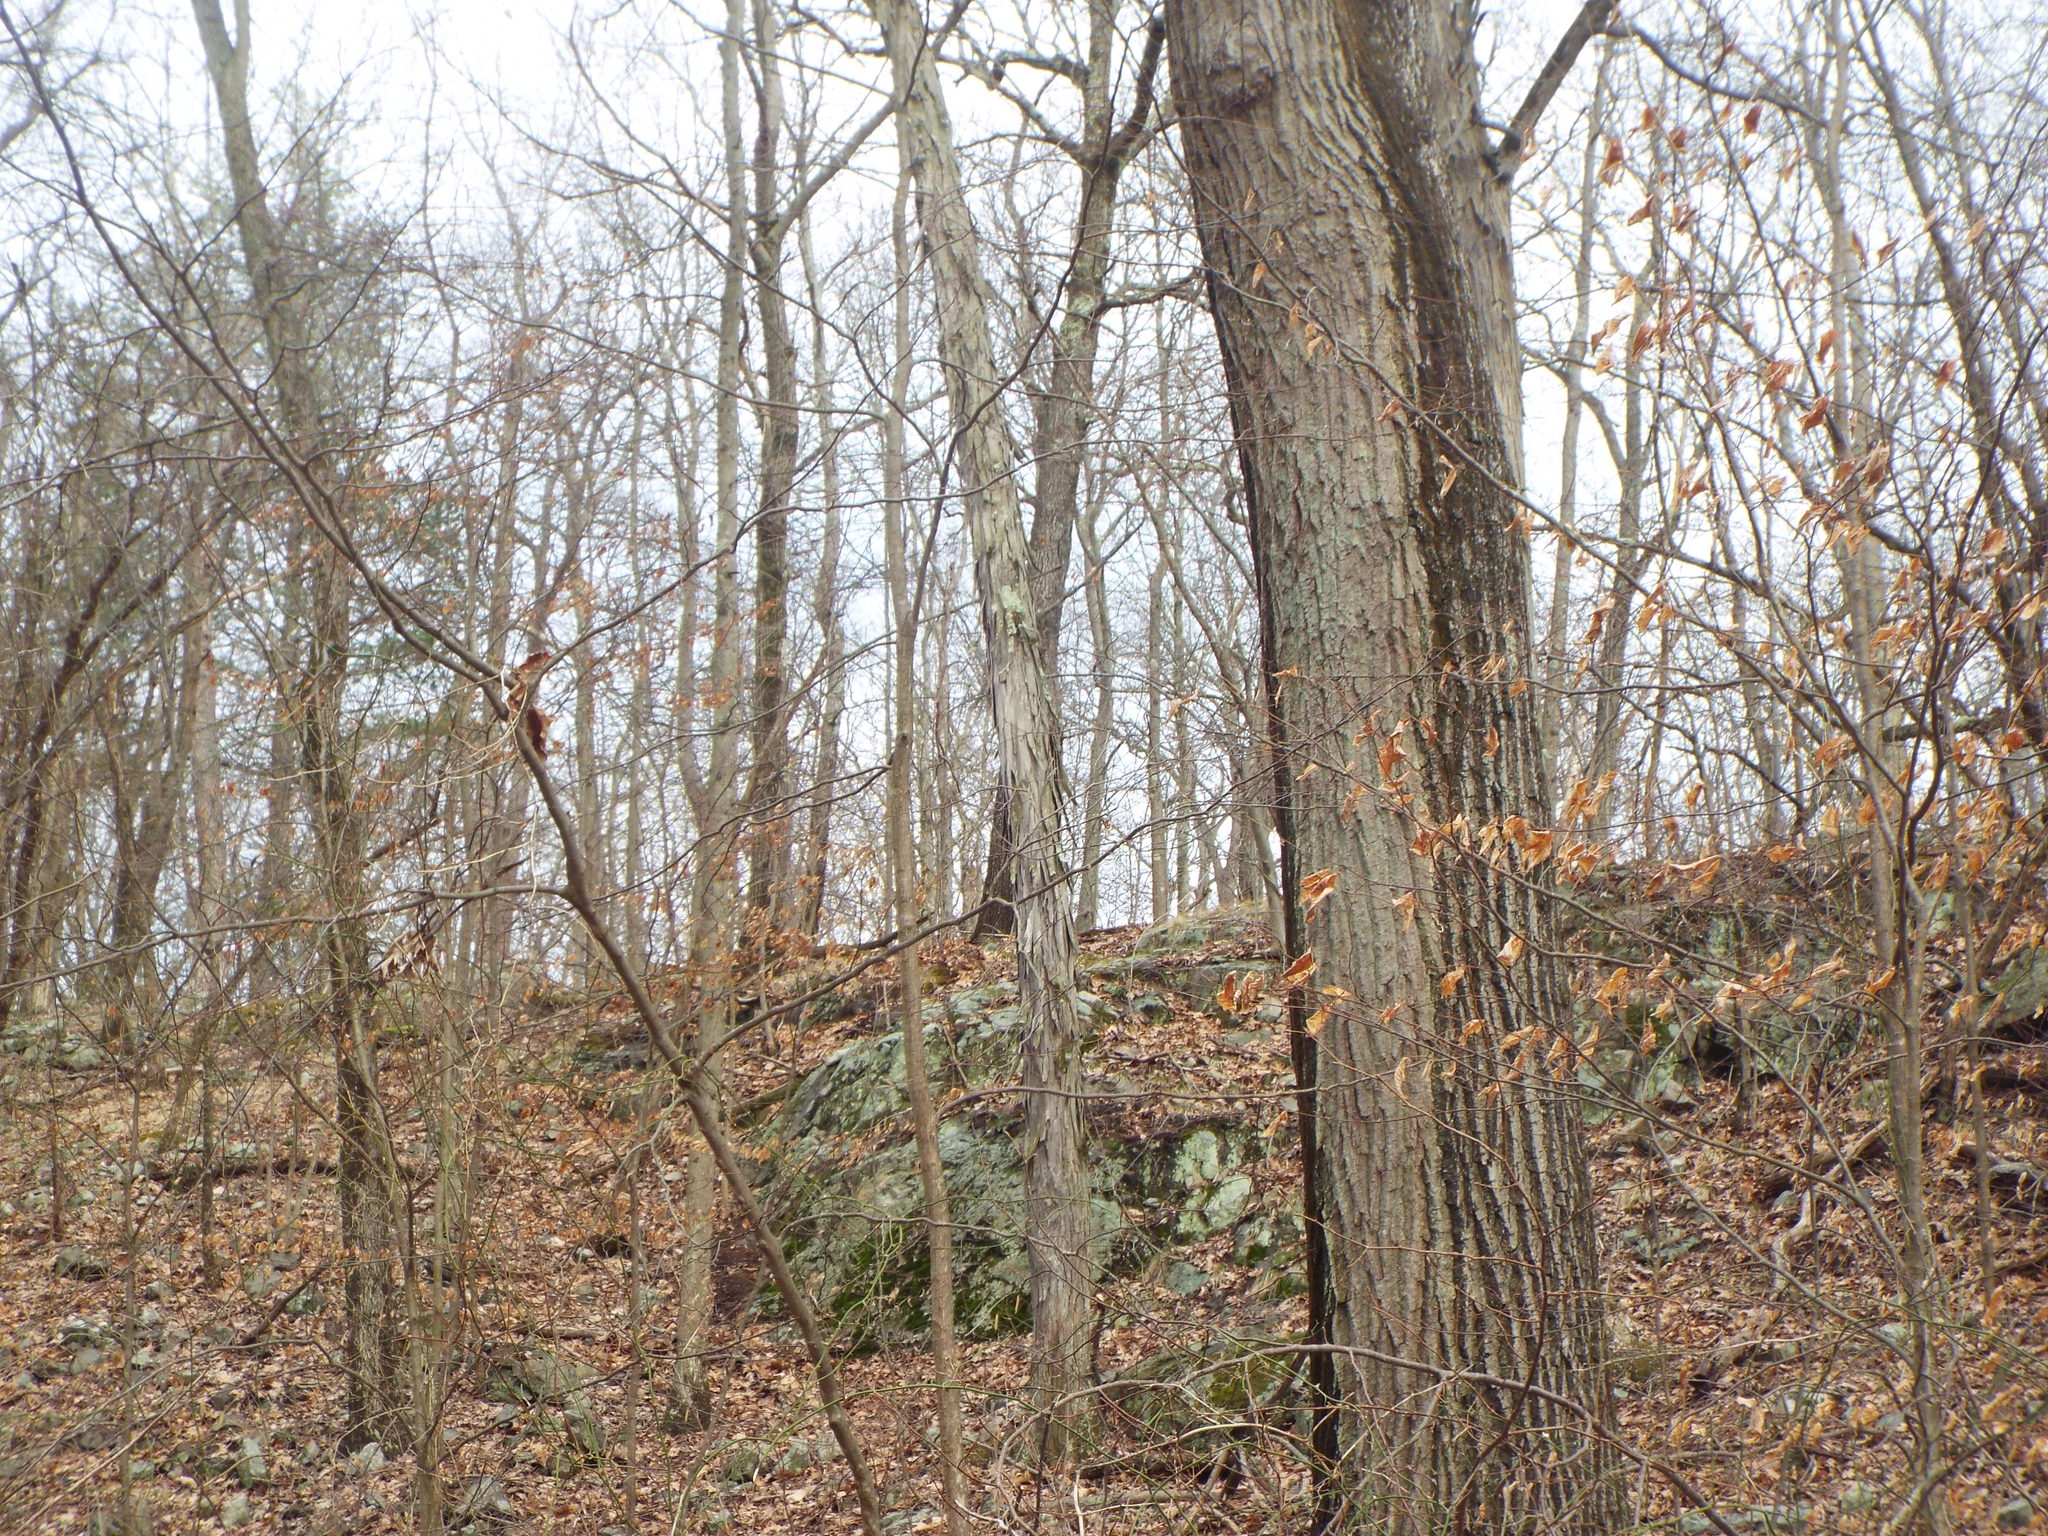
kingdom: Plantae
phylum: Tracheophyta
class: Magnoliopsida
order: Fagales
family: Juglandaceae
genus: Carya
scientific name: Carya ovata
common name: Shagbark hickory
